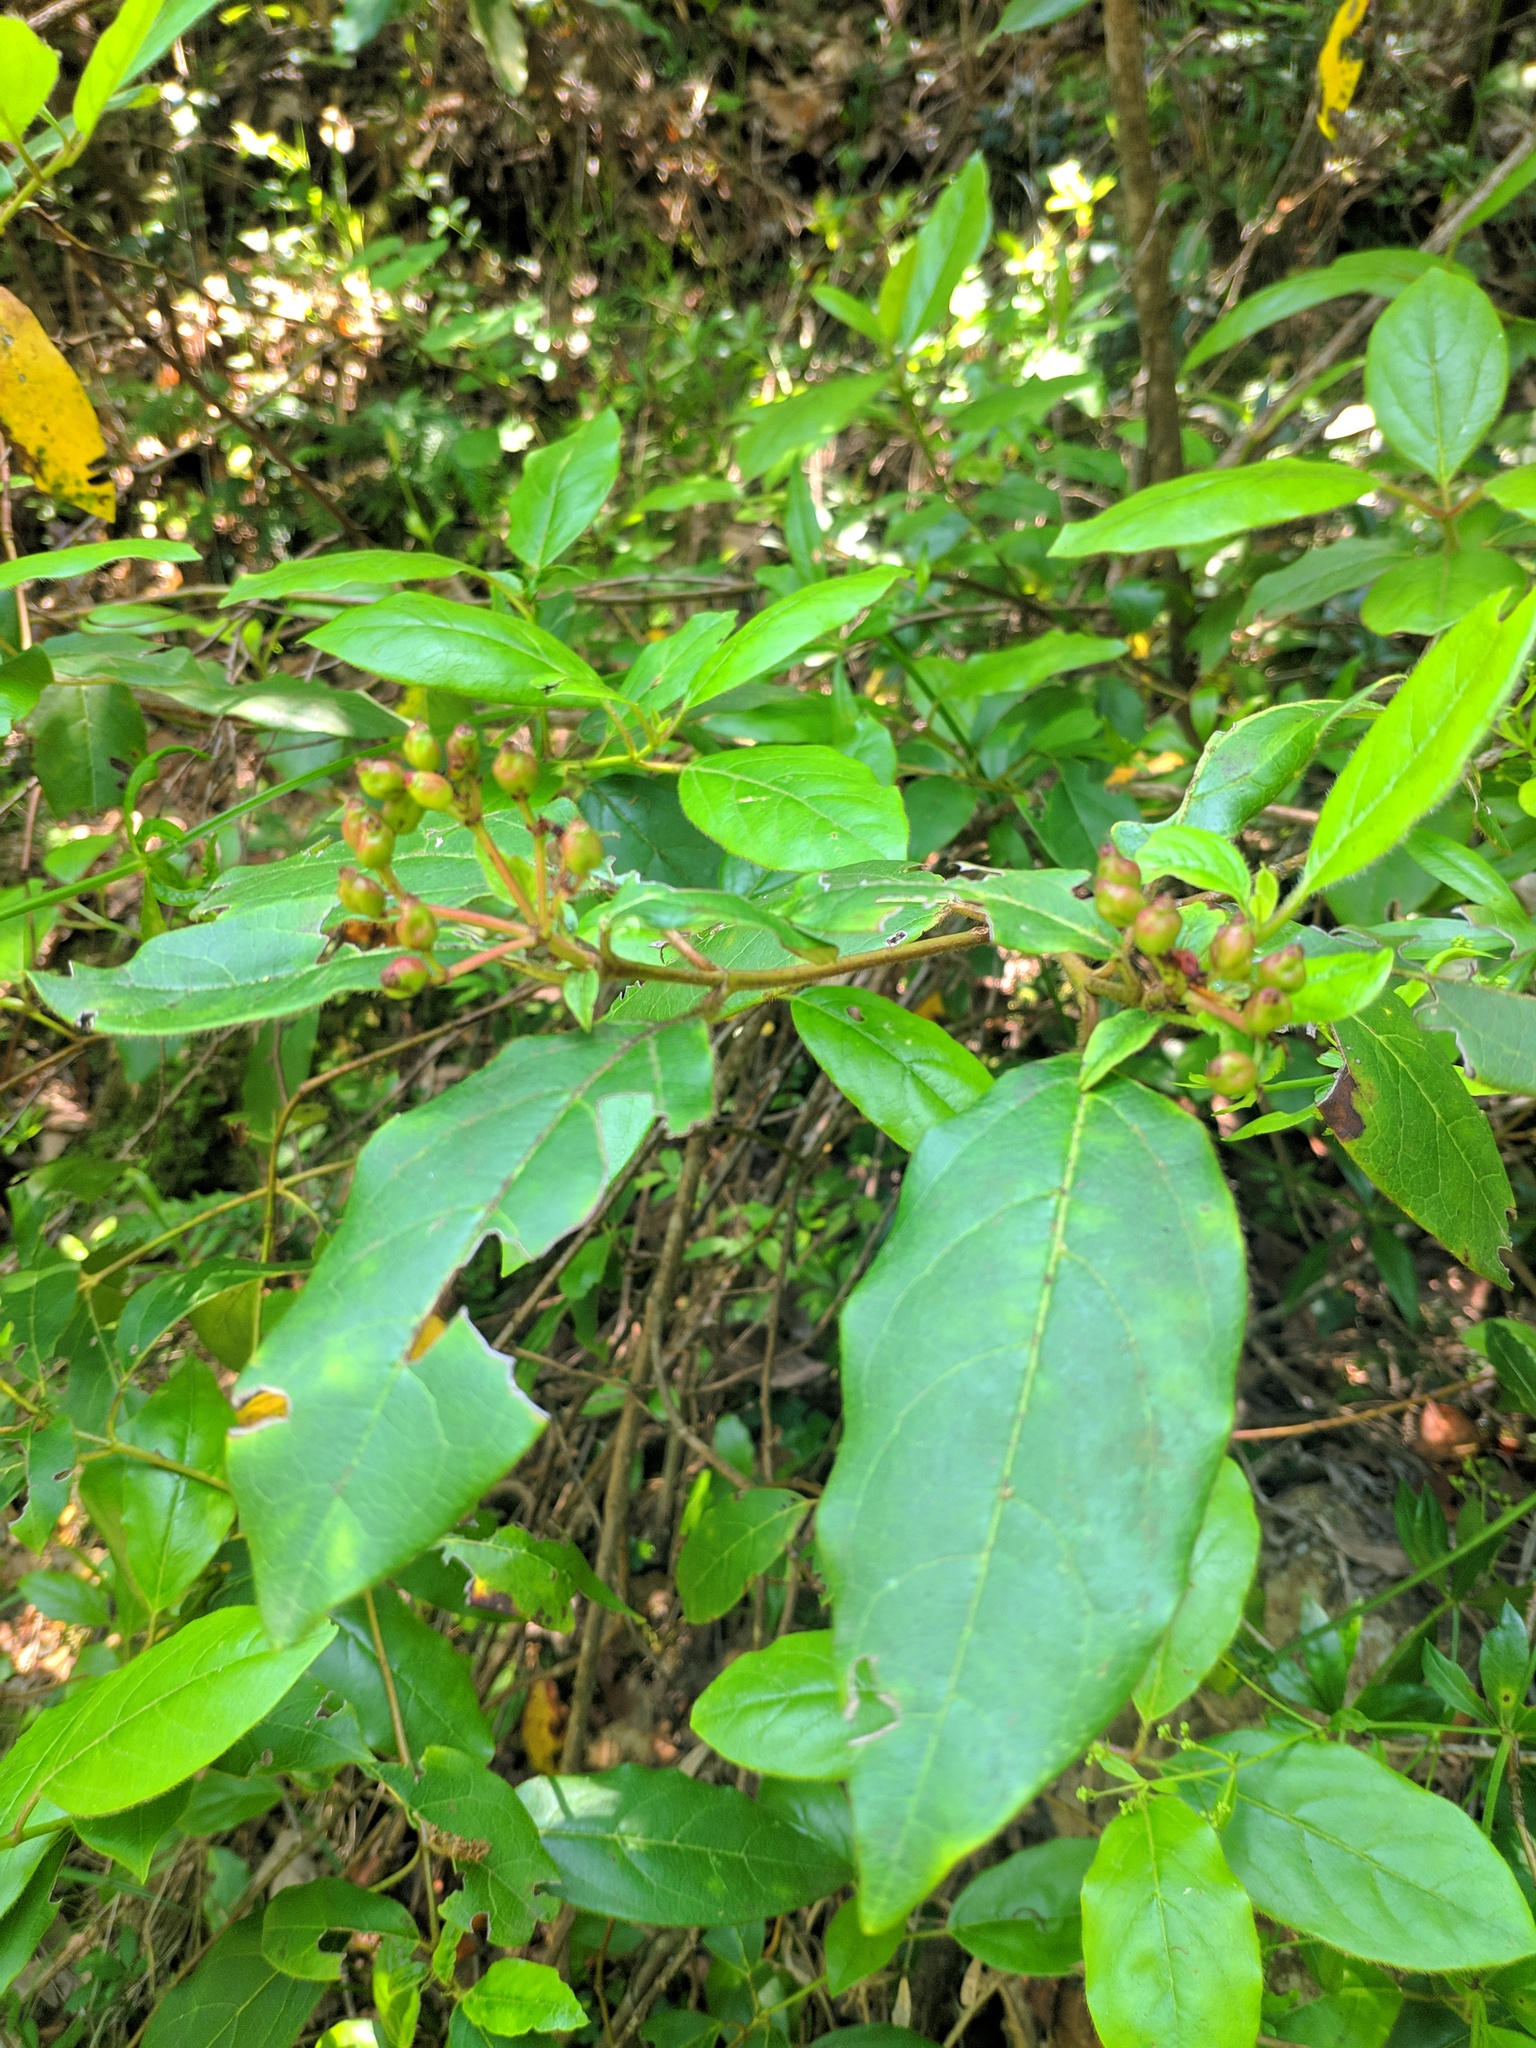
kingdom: Plantae
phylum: Tracheophyta
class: Magnoliopsida
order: Dipsacales
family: Viburnaceae
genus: Viburnum
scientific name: Viburnum tinus
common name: Laurustinus
